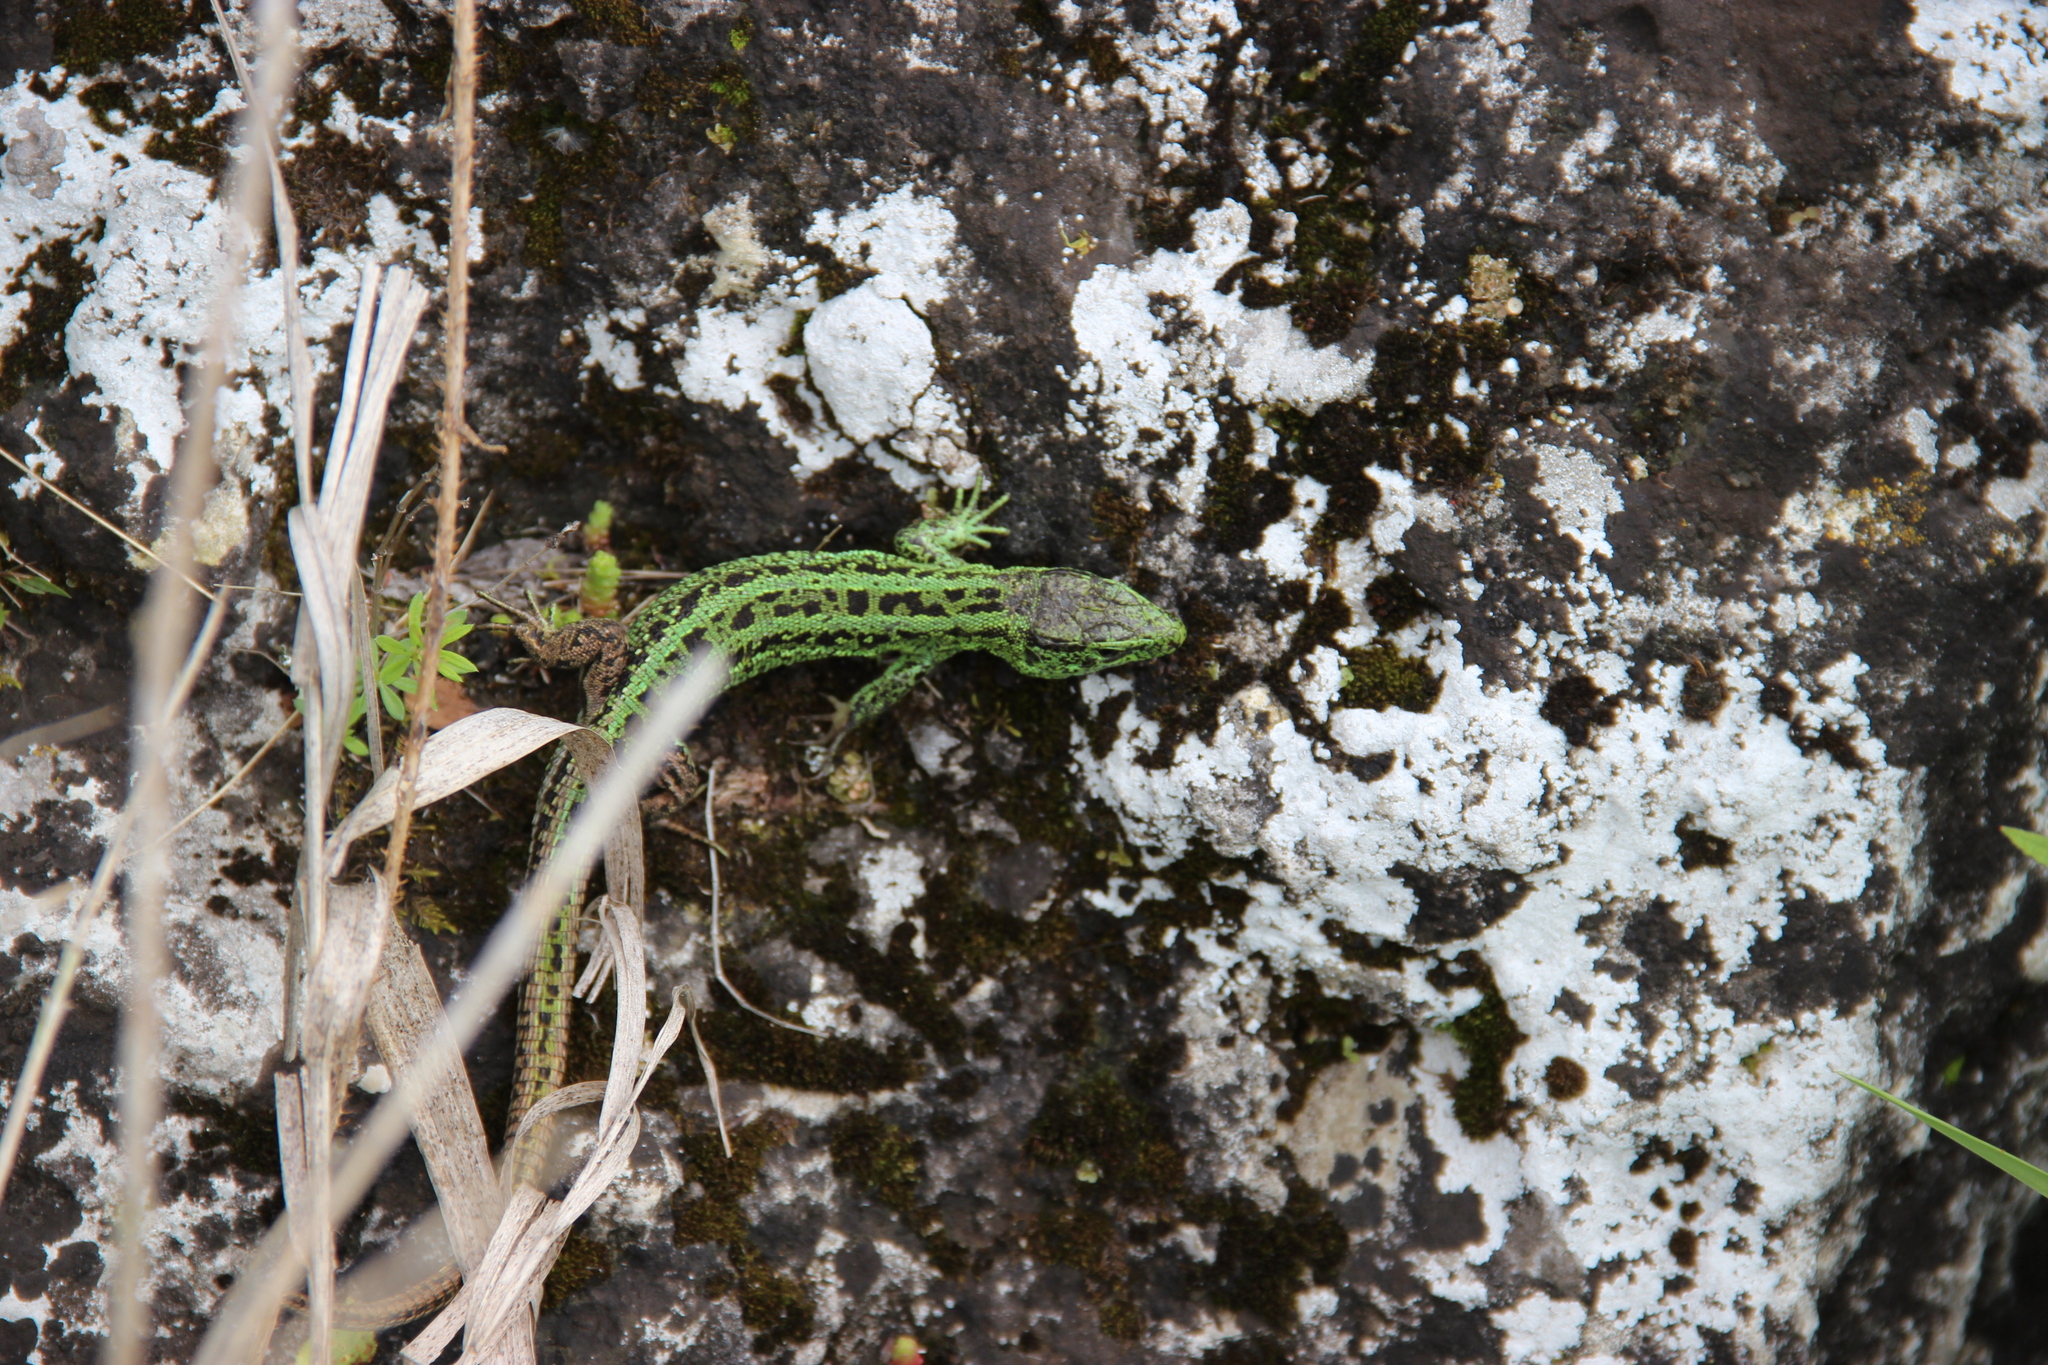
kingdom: Animalia
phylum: Chordata
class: Squamata
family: Lacertidae
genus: Lacerta
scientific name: Lacerta agilis
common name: Sand lizard
